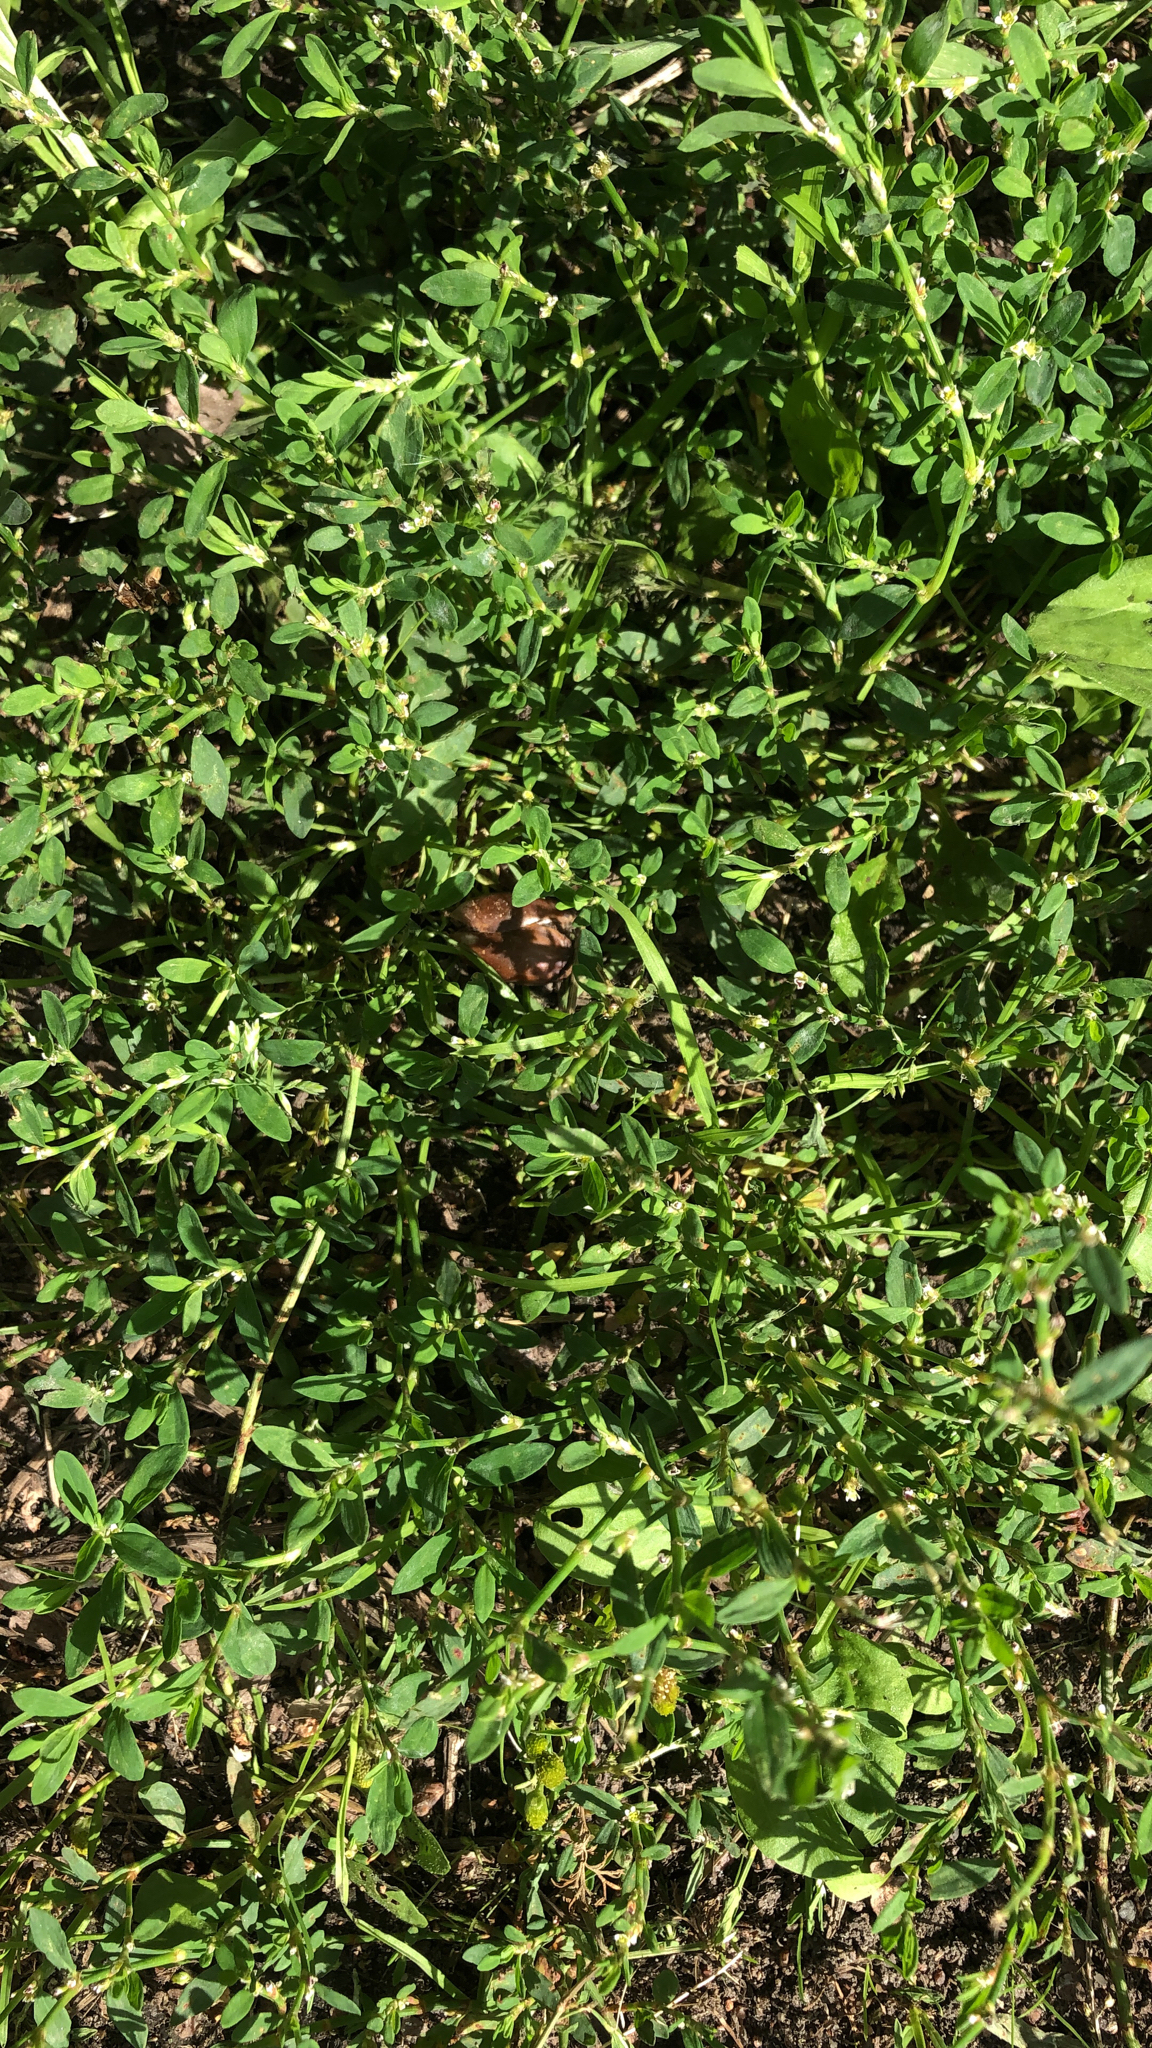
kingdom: Plantae
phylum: Tracheophyta
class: Magnoliopsida
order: Caryophyllales
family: Polygonaceae
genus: Polygonum
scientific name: Polygonum
